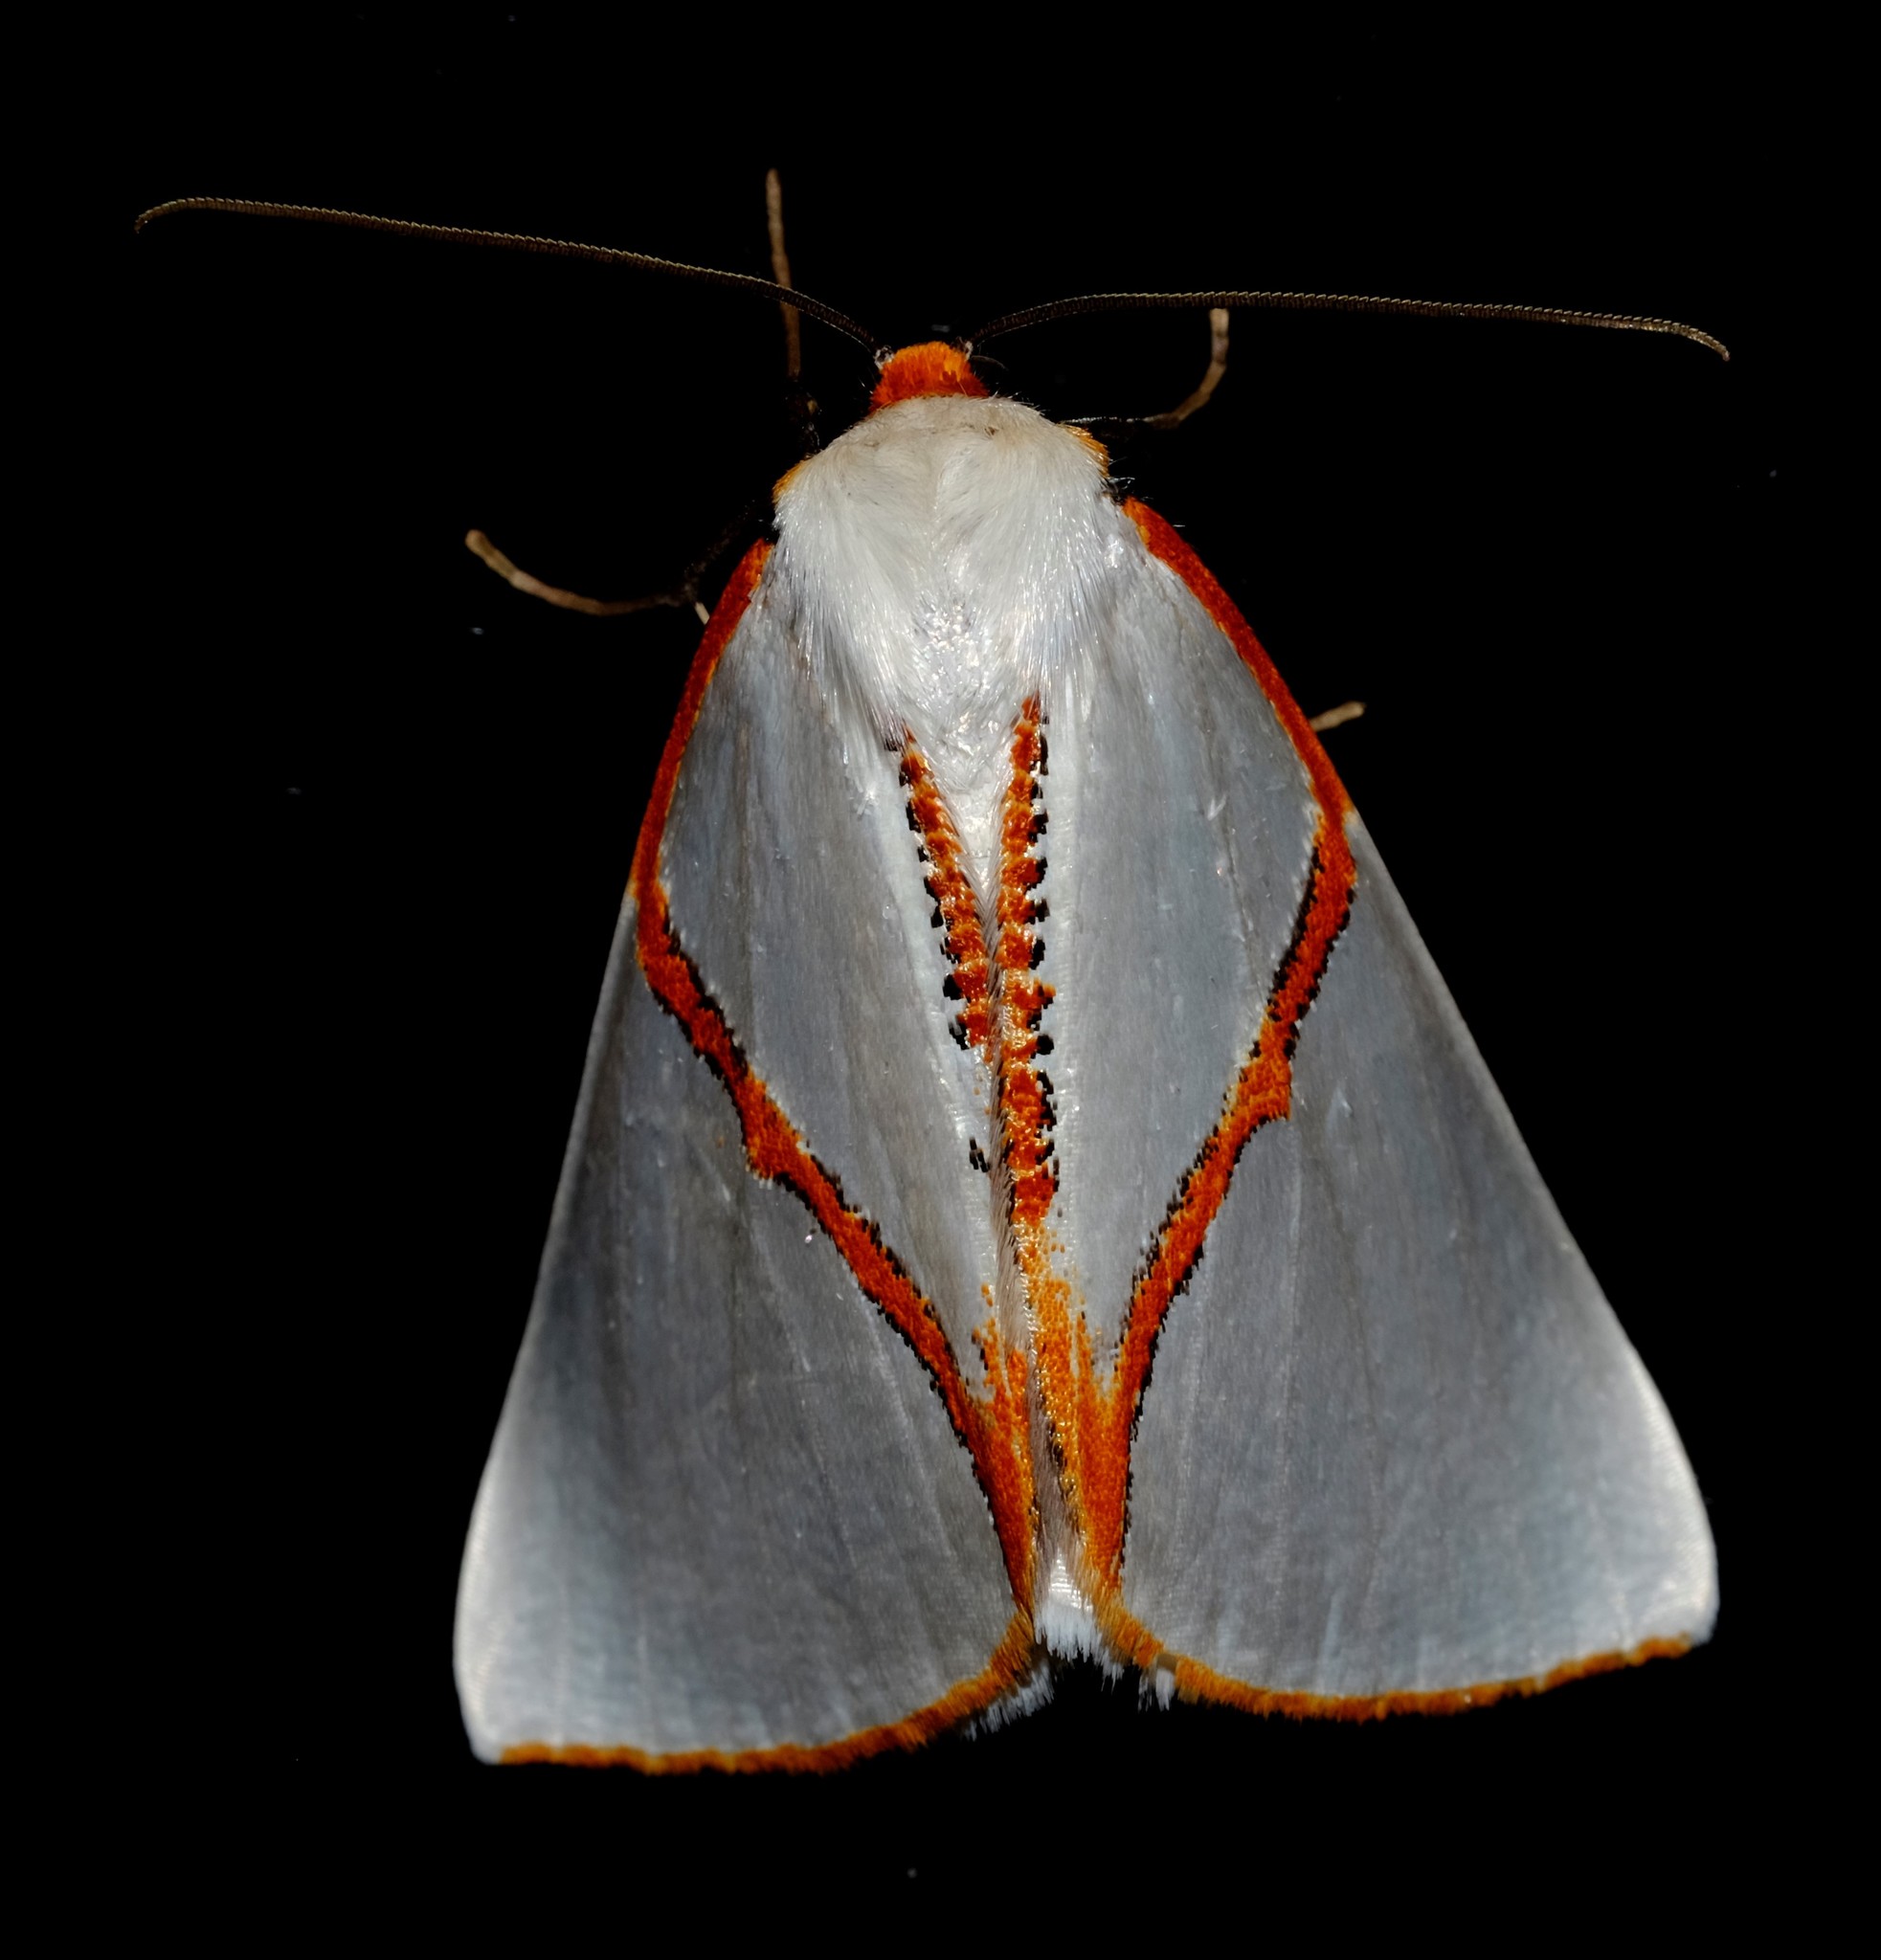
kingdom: Animalia
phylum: Arthropoda
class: Insecta
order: Lepidoptera
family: Geometridae
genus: Thalaina
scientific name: Thalaina selenaea
